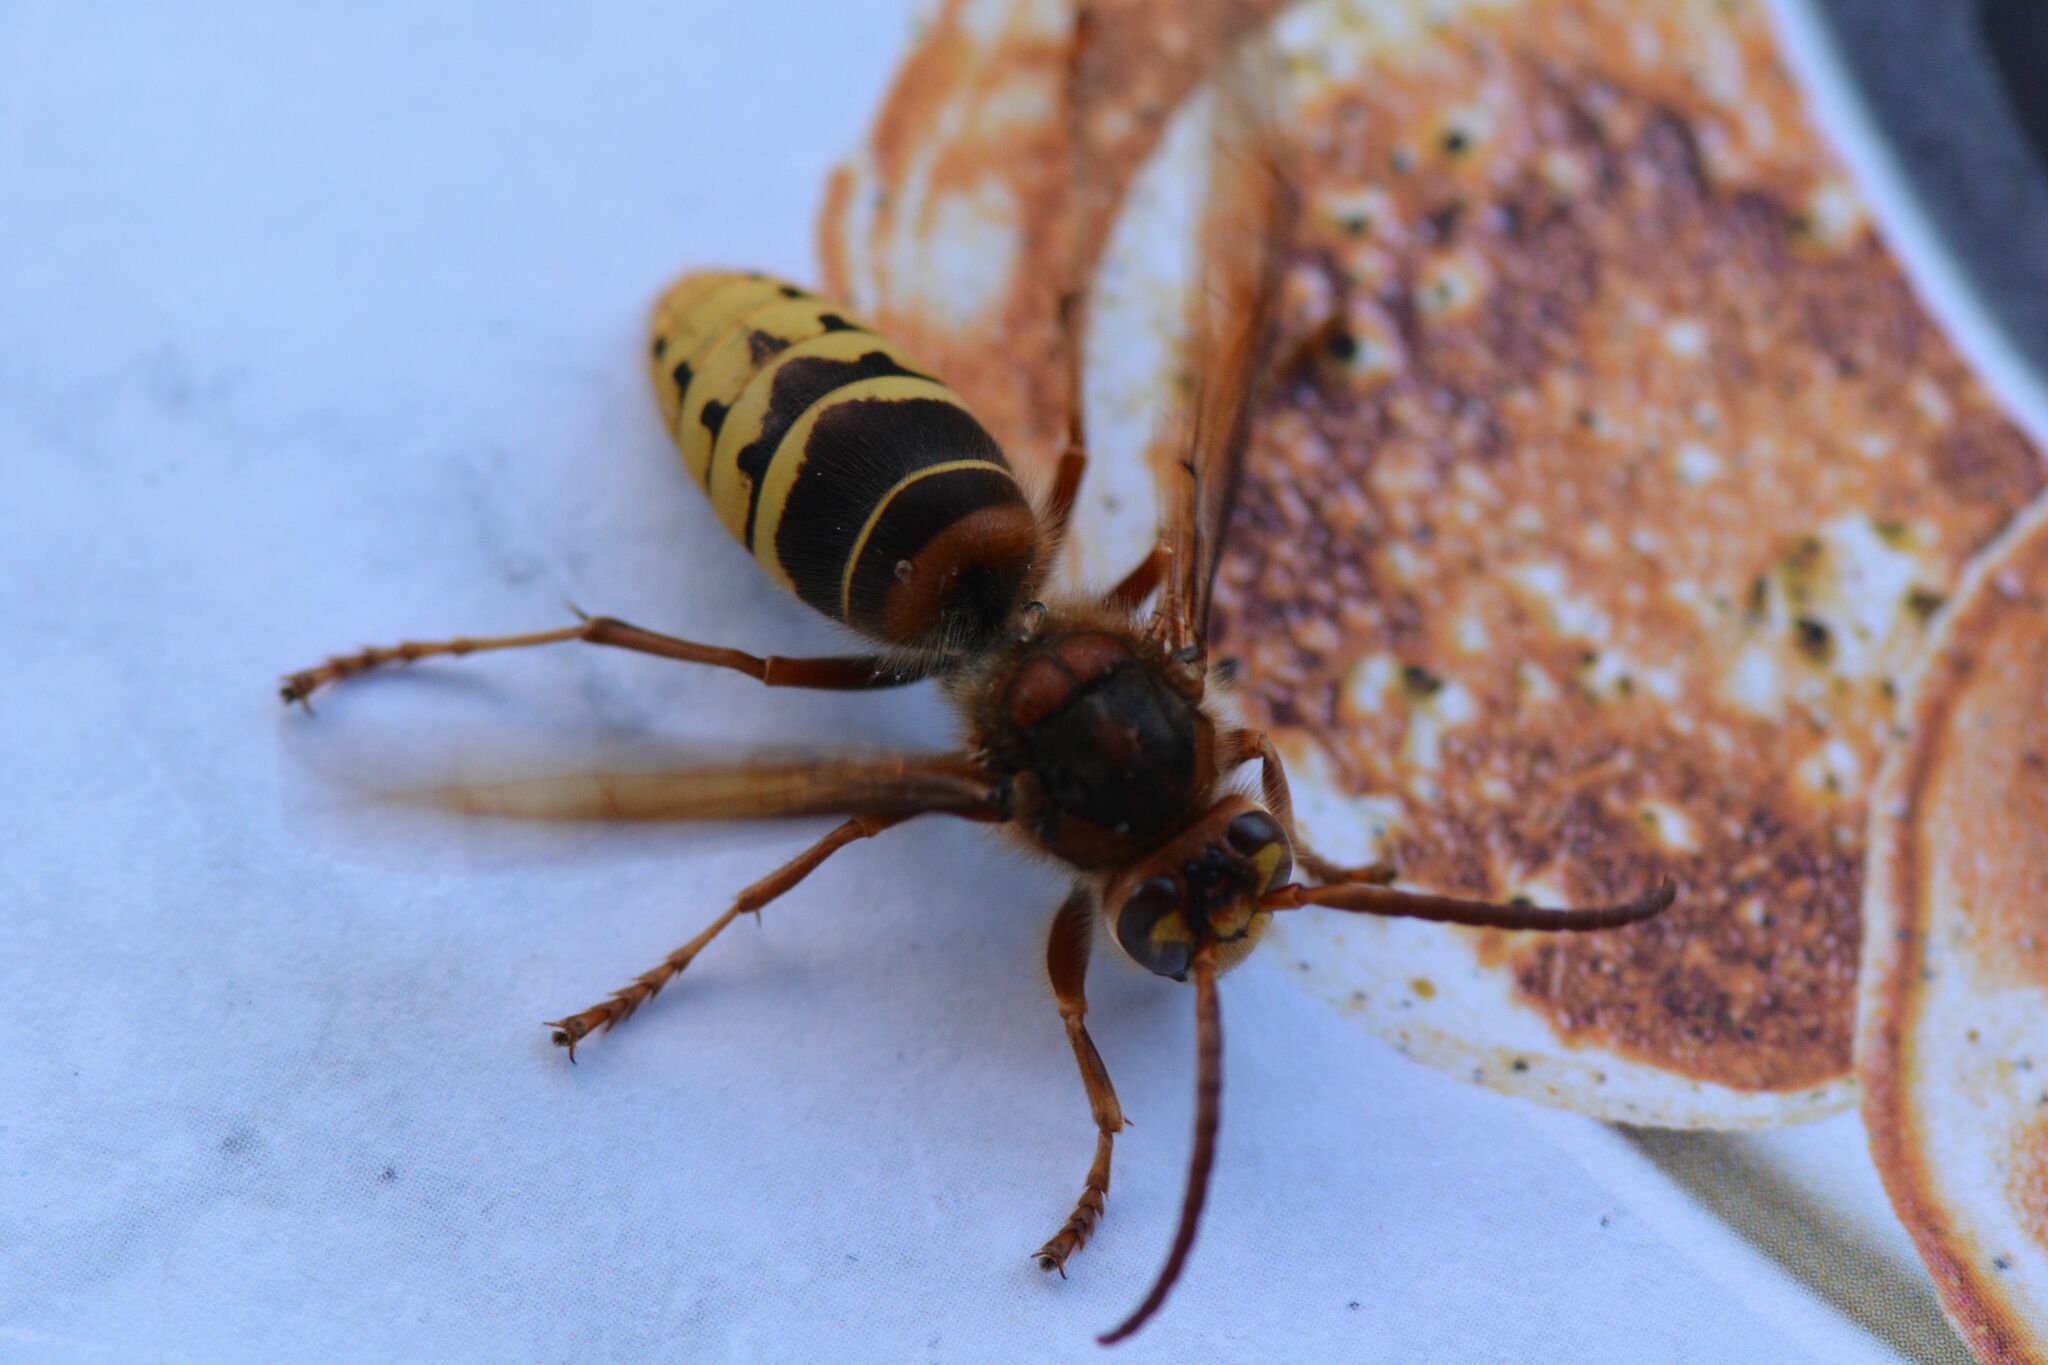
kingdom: Animalia
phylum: Arthropoda
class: Insecta
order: Hymenoptera
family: Vespidae
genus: Vespa
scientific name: Vespa crabro
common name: Hornet
